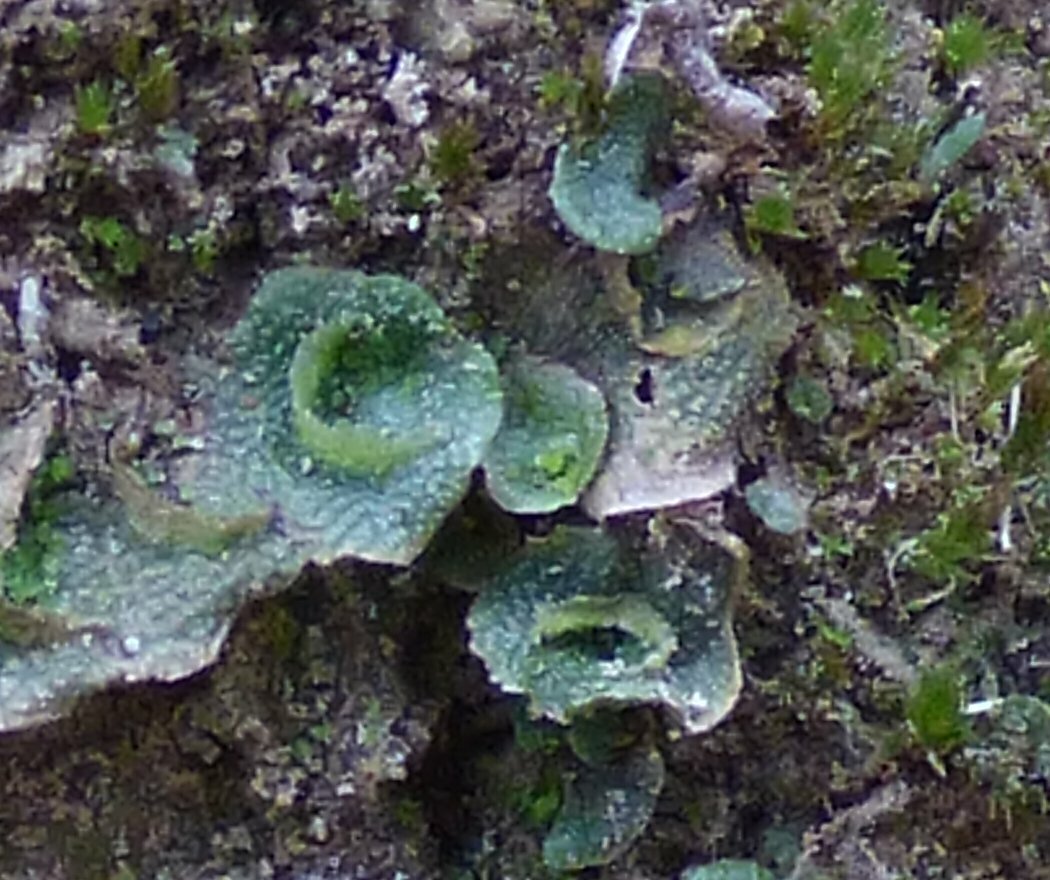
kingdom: Plantae
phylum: Marchantiophyta
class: Marchantiopsida
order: Lunulariales
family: Lunulariaceae
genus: Lunularia
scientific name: Lunularia cruciata
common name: Crescent-cup liverwort
